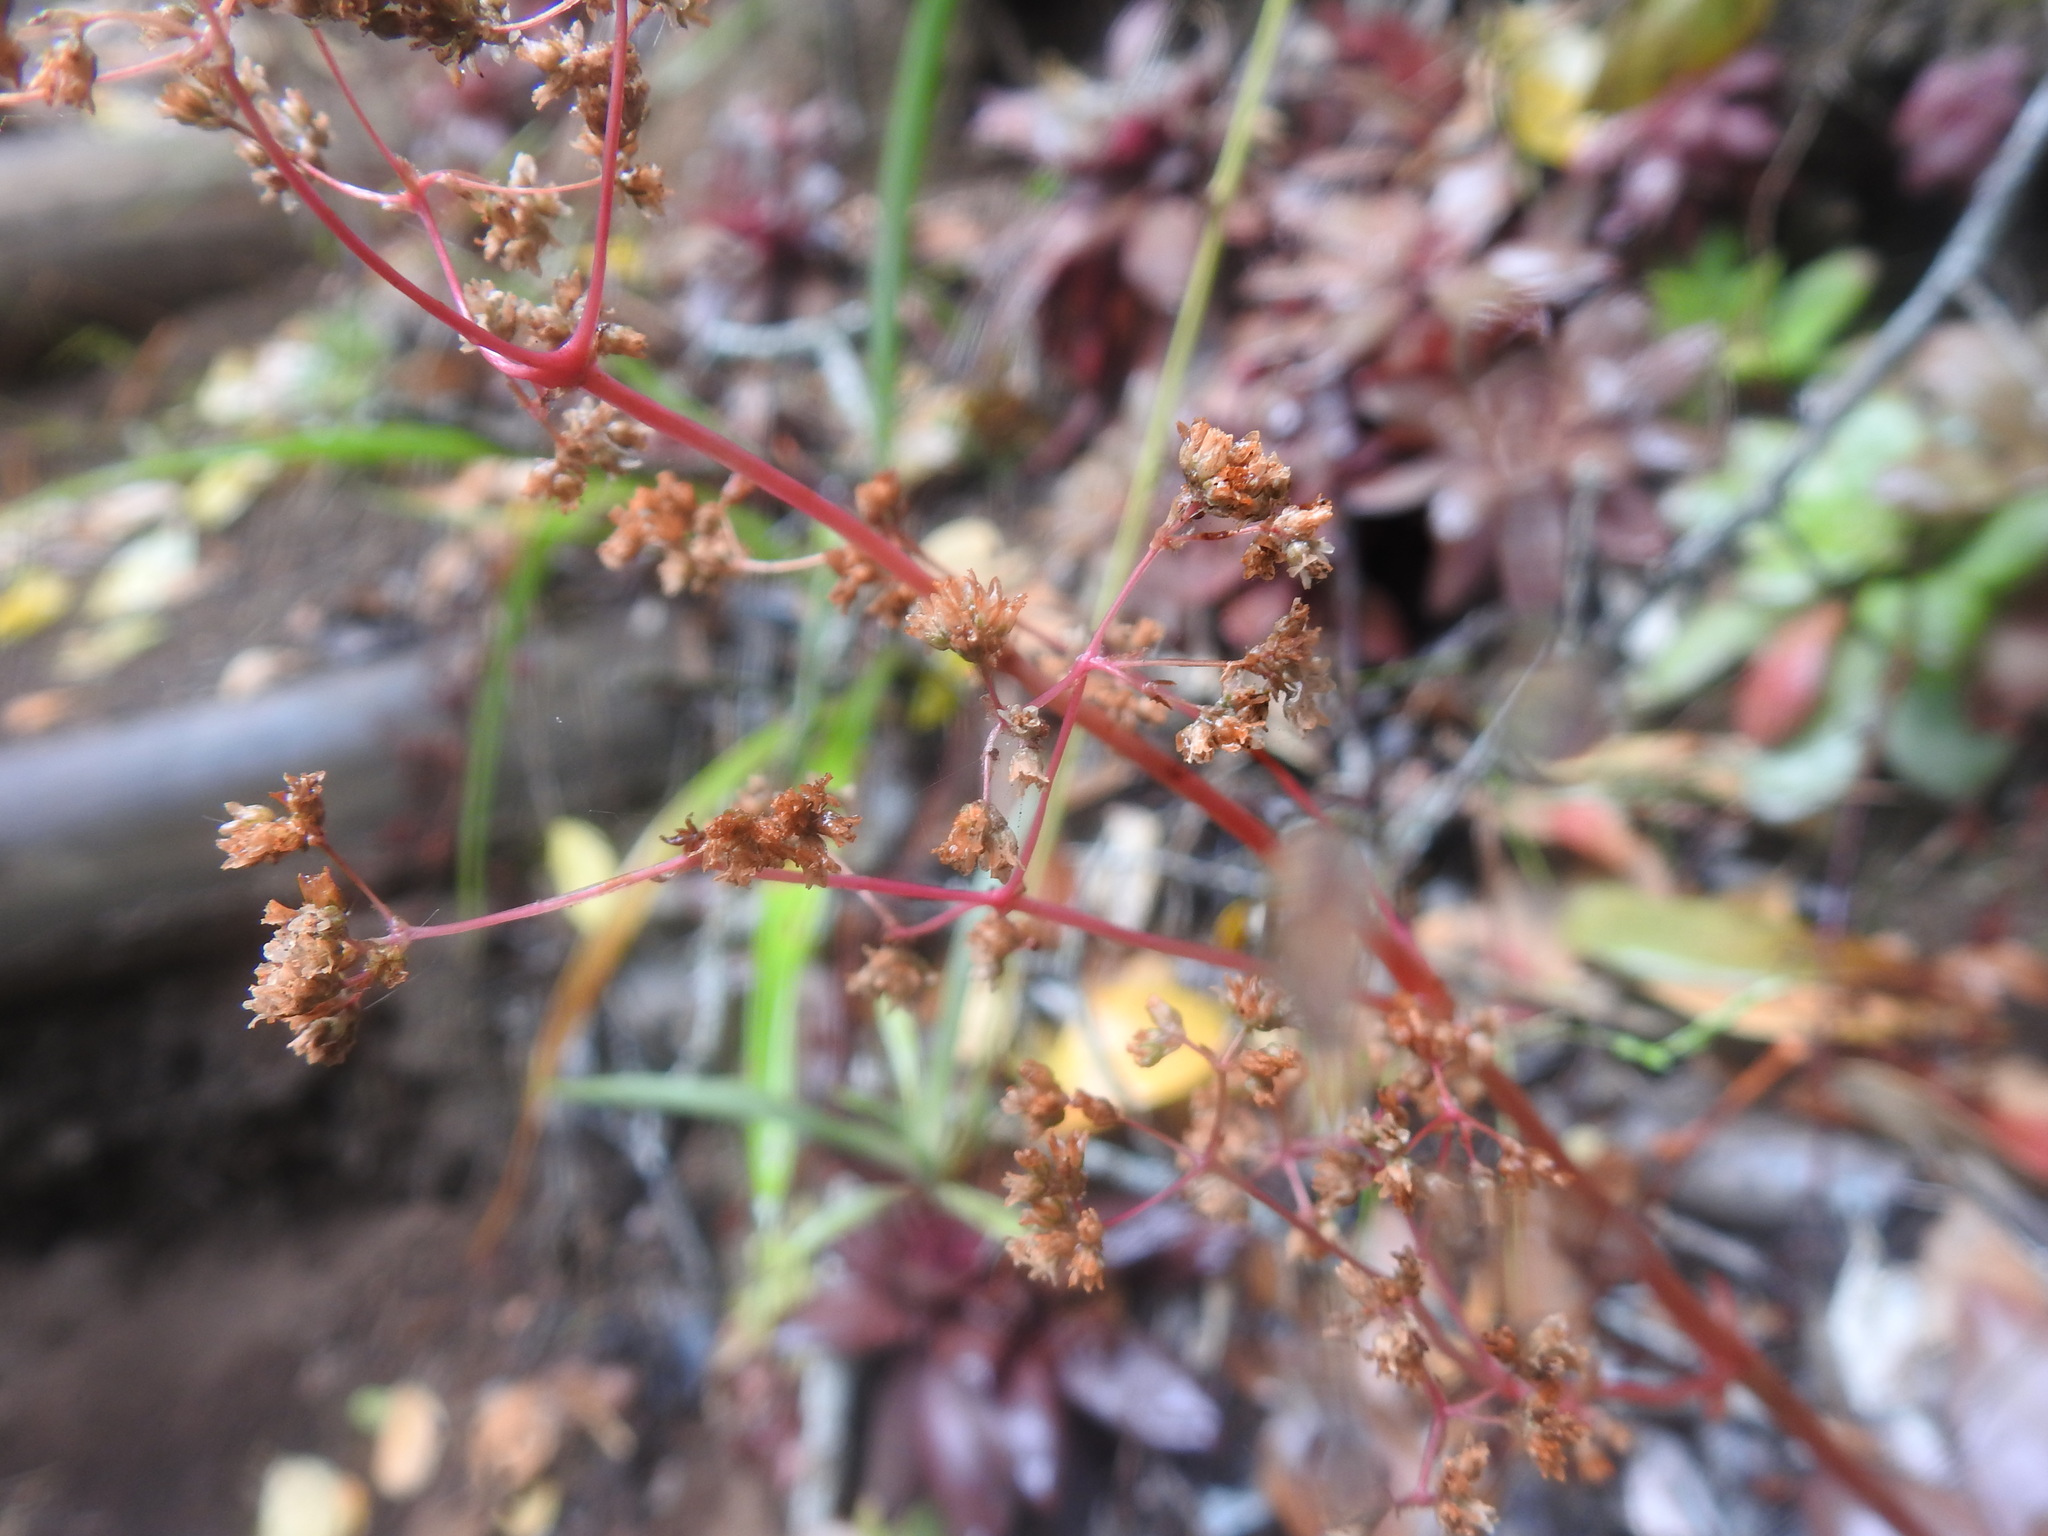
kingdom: Plantae
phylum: Tracheophyta
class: Magnoliopsida
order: Saxifragales
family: Crassulaceae
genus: Crassula
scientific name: Crassula orbicularis
